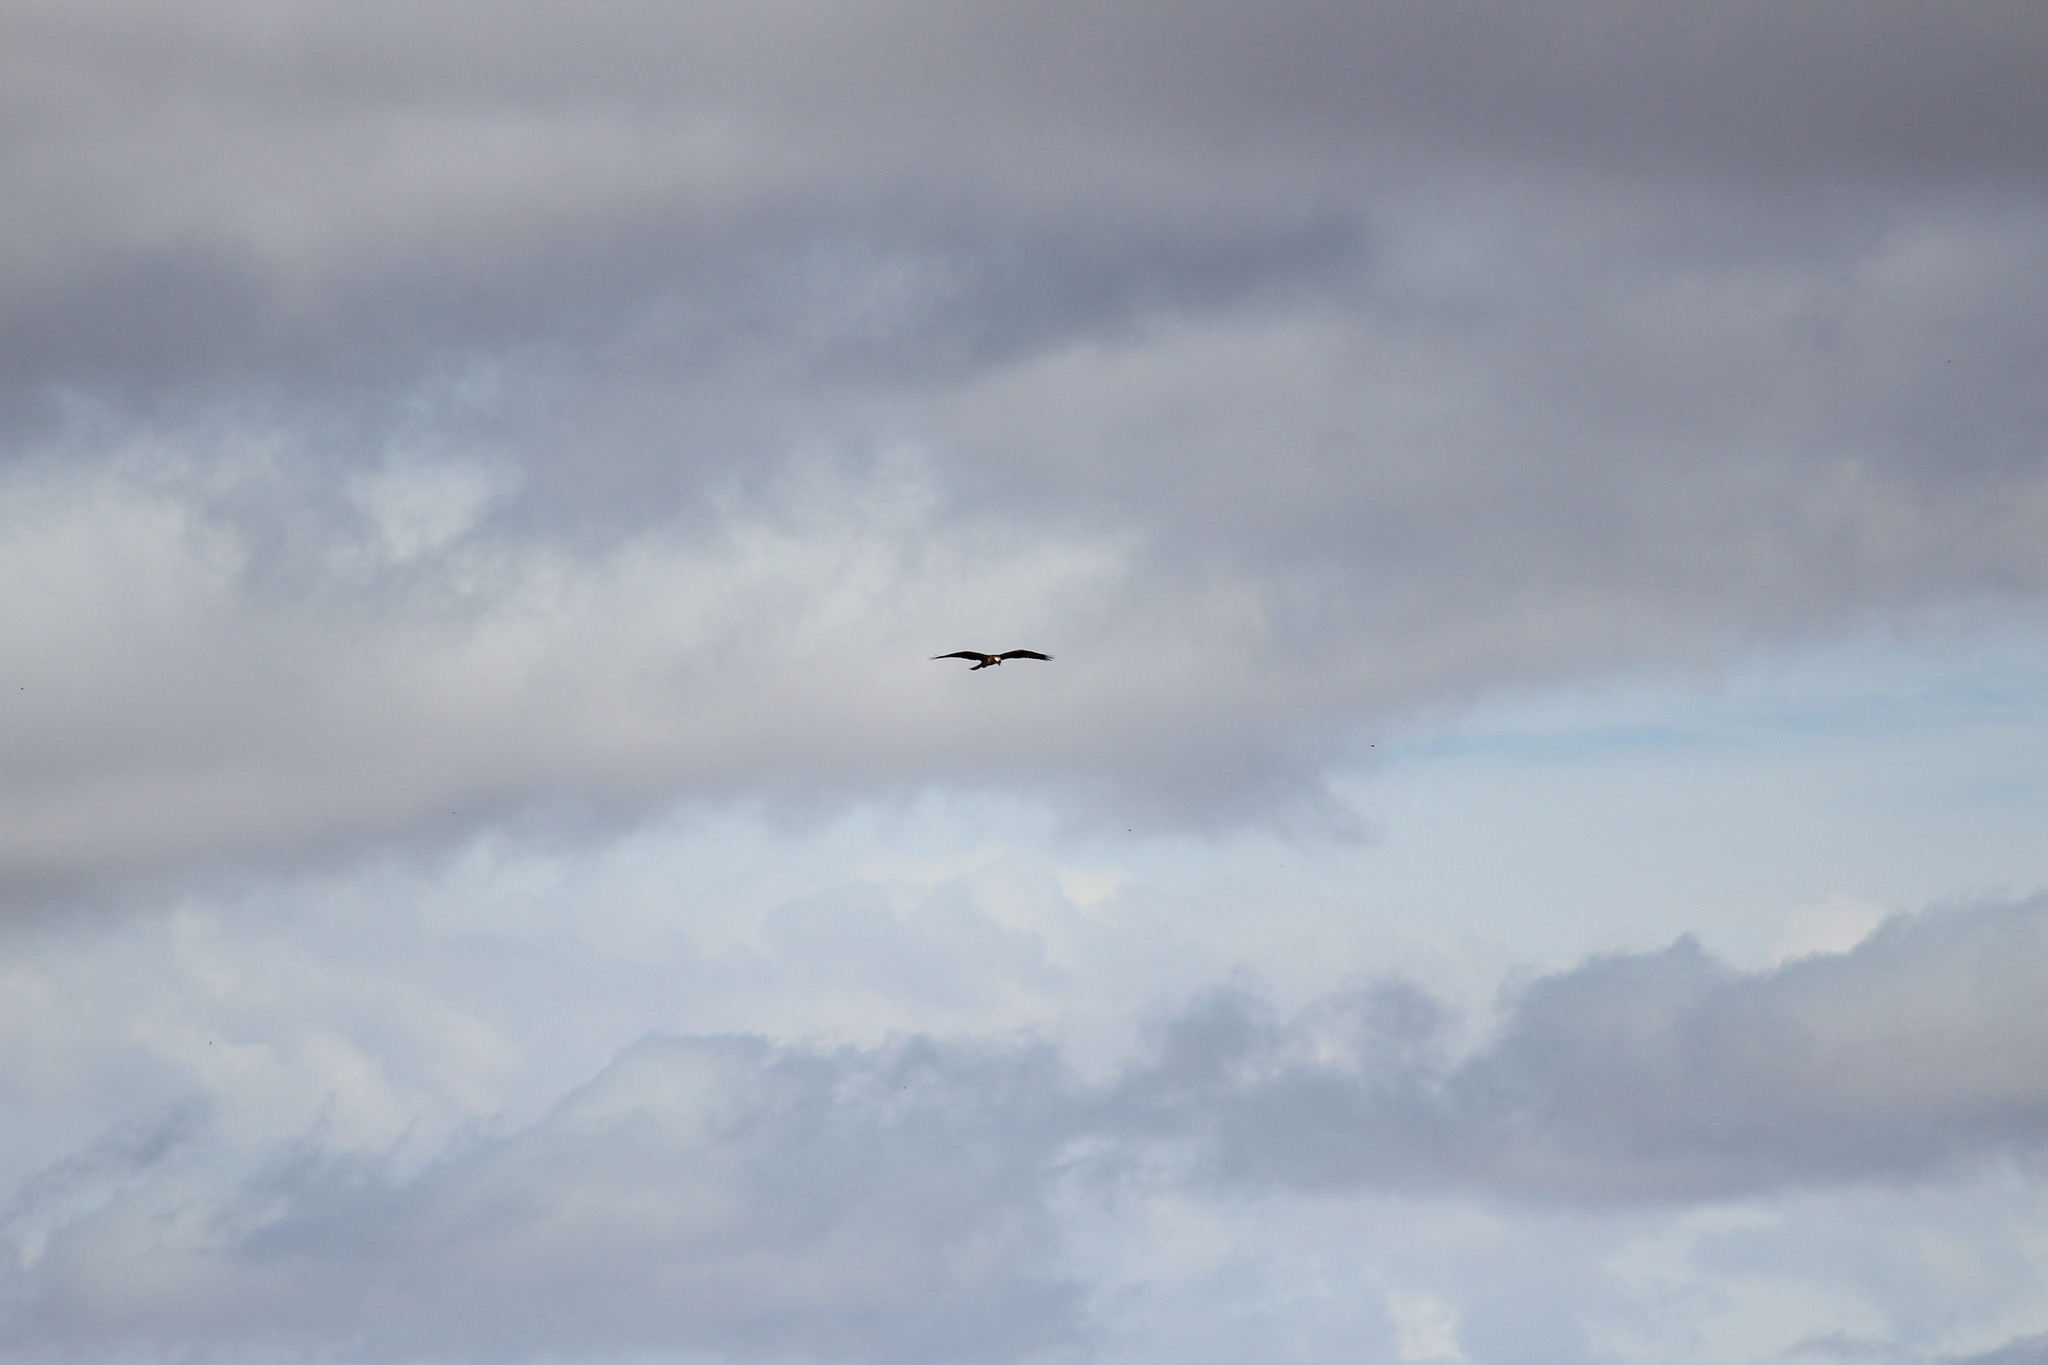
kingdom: Animalia
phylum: Chordata
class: Aves
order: Accipitriformes
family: Pandionidae
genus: Pandion
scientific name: Pandion haliaetus
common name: Osprey
